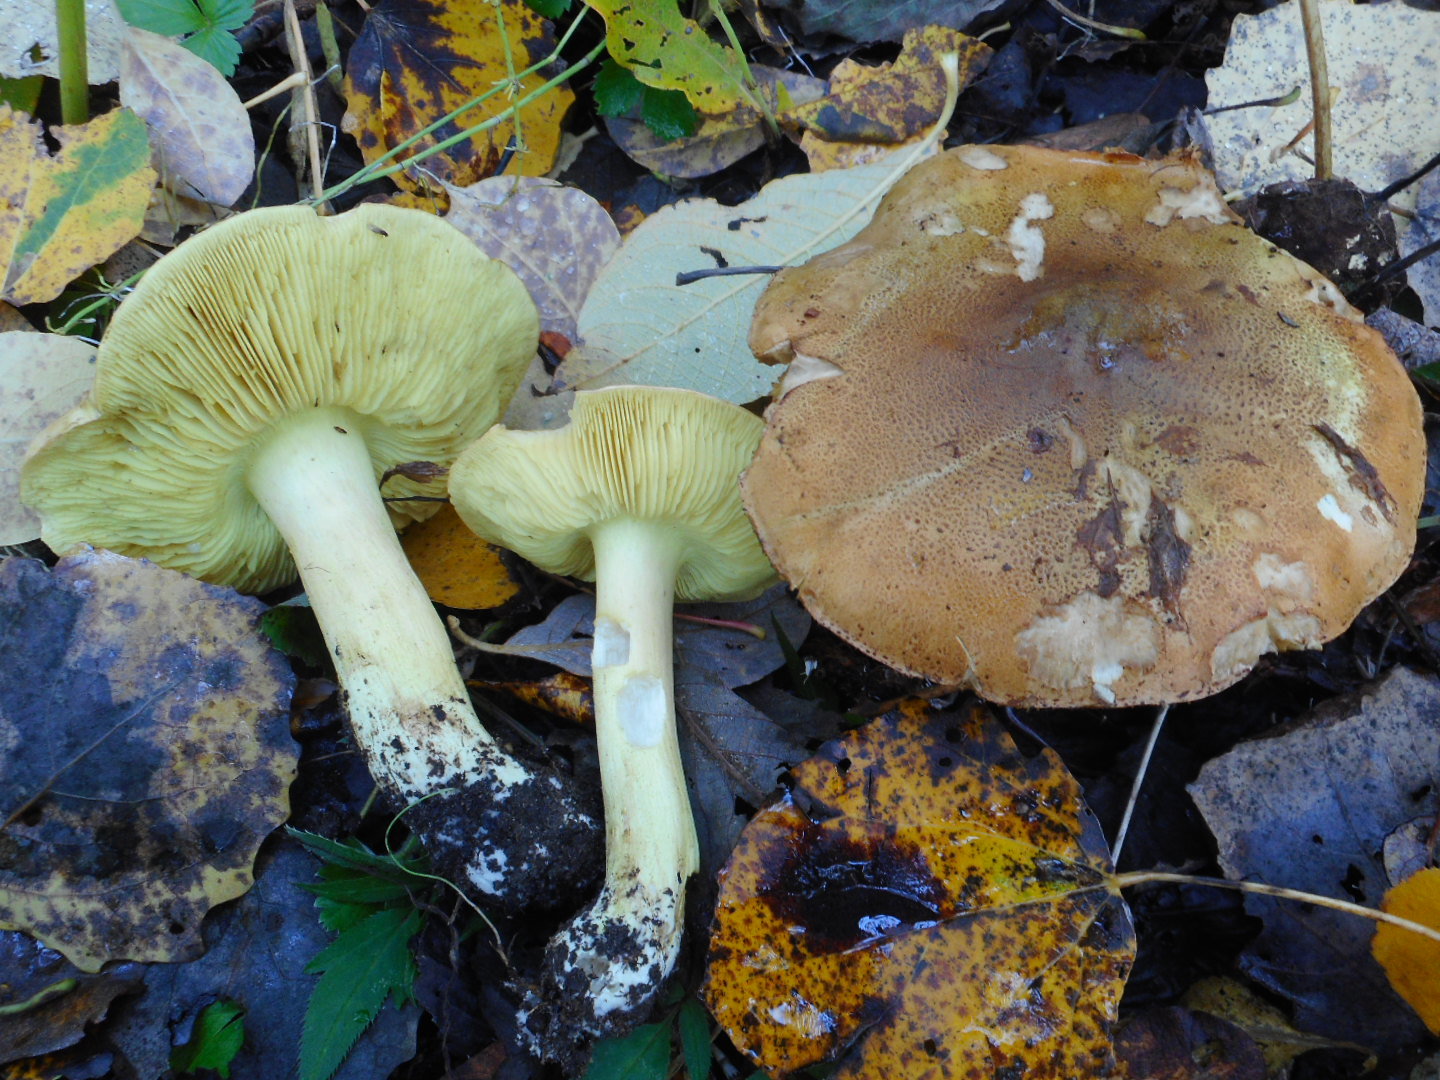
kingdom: Fungi
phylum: Basidiomycota
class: Agaricomycetes
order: Agaricales
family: Tricholomataceae
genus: Tricholoma
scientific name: Tricholoma frondosae
